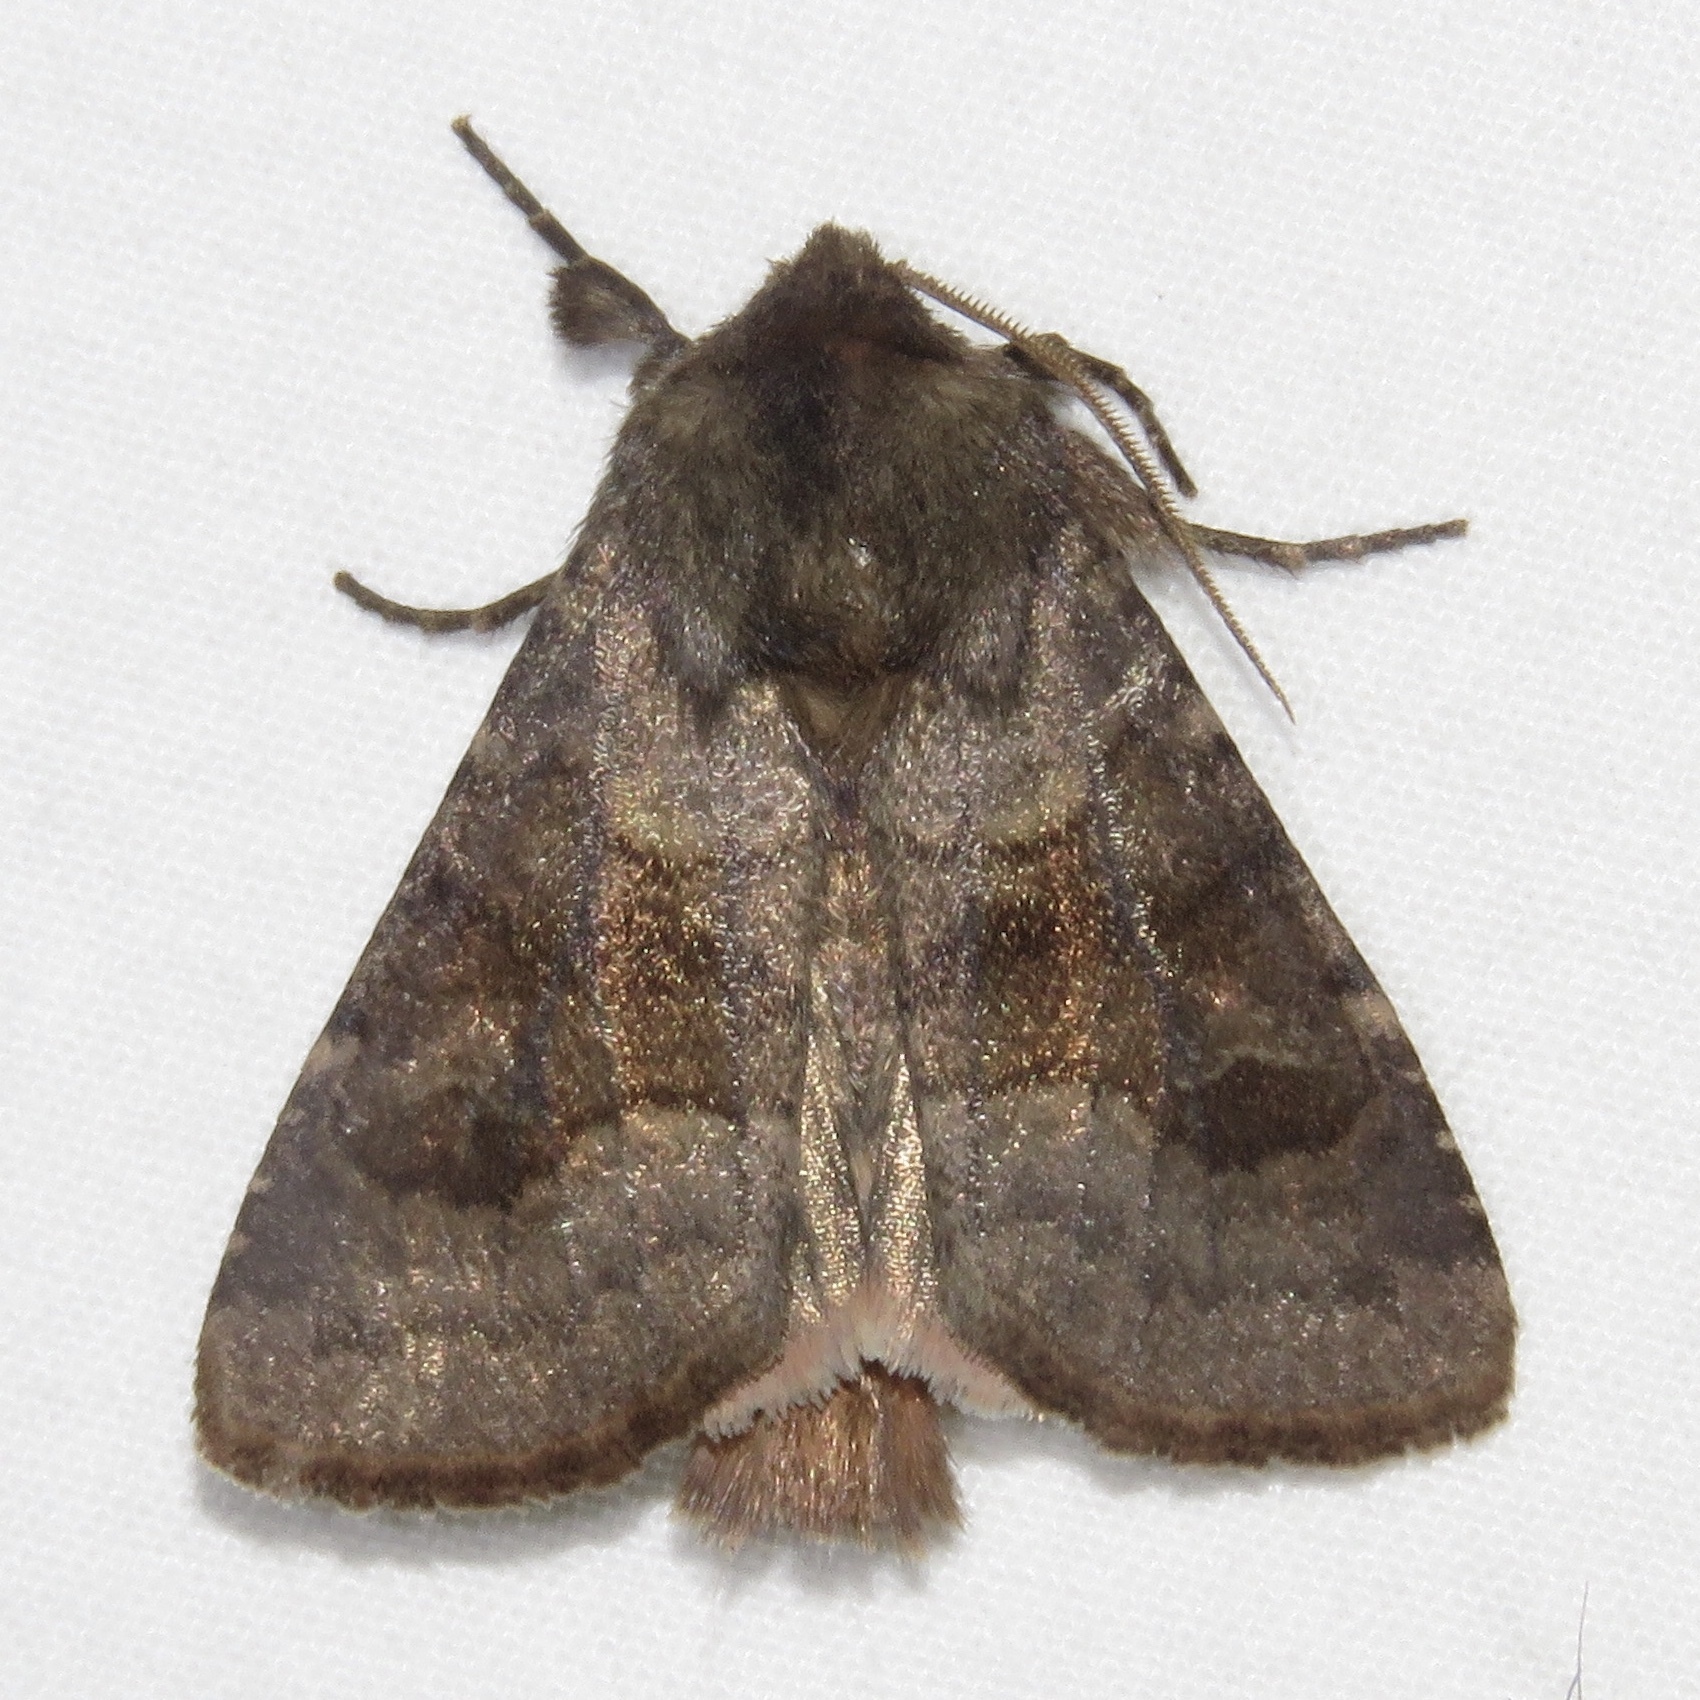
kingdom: Animalia
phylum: Arthropoda
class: Insecta
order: Lepidoptera
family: Noctuidae
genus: Nephelodes
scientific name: Nephelodes minians
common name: Bronzed cutworm
